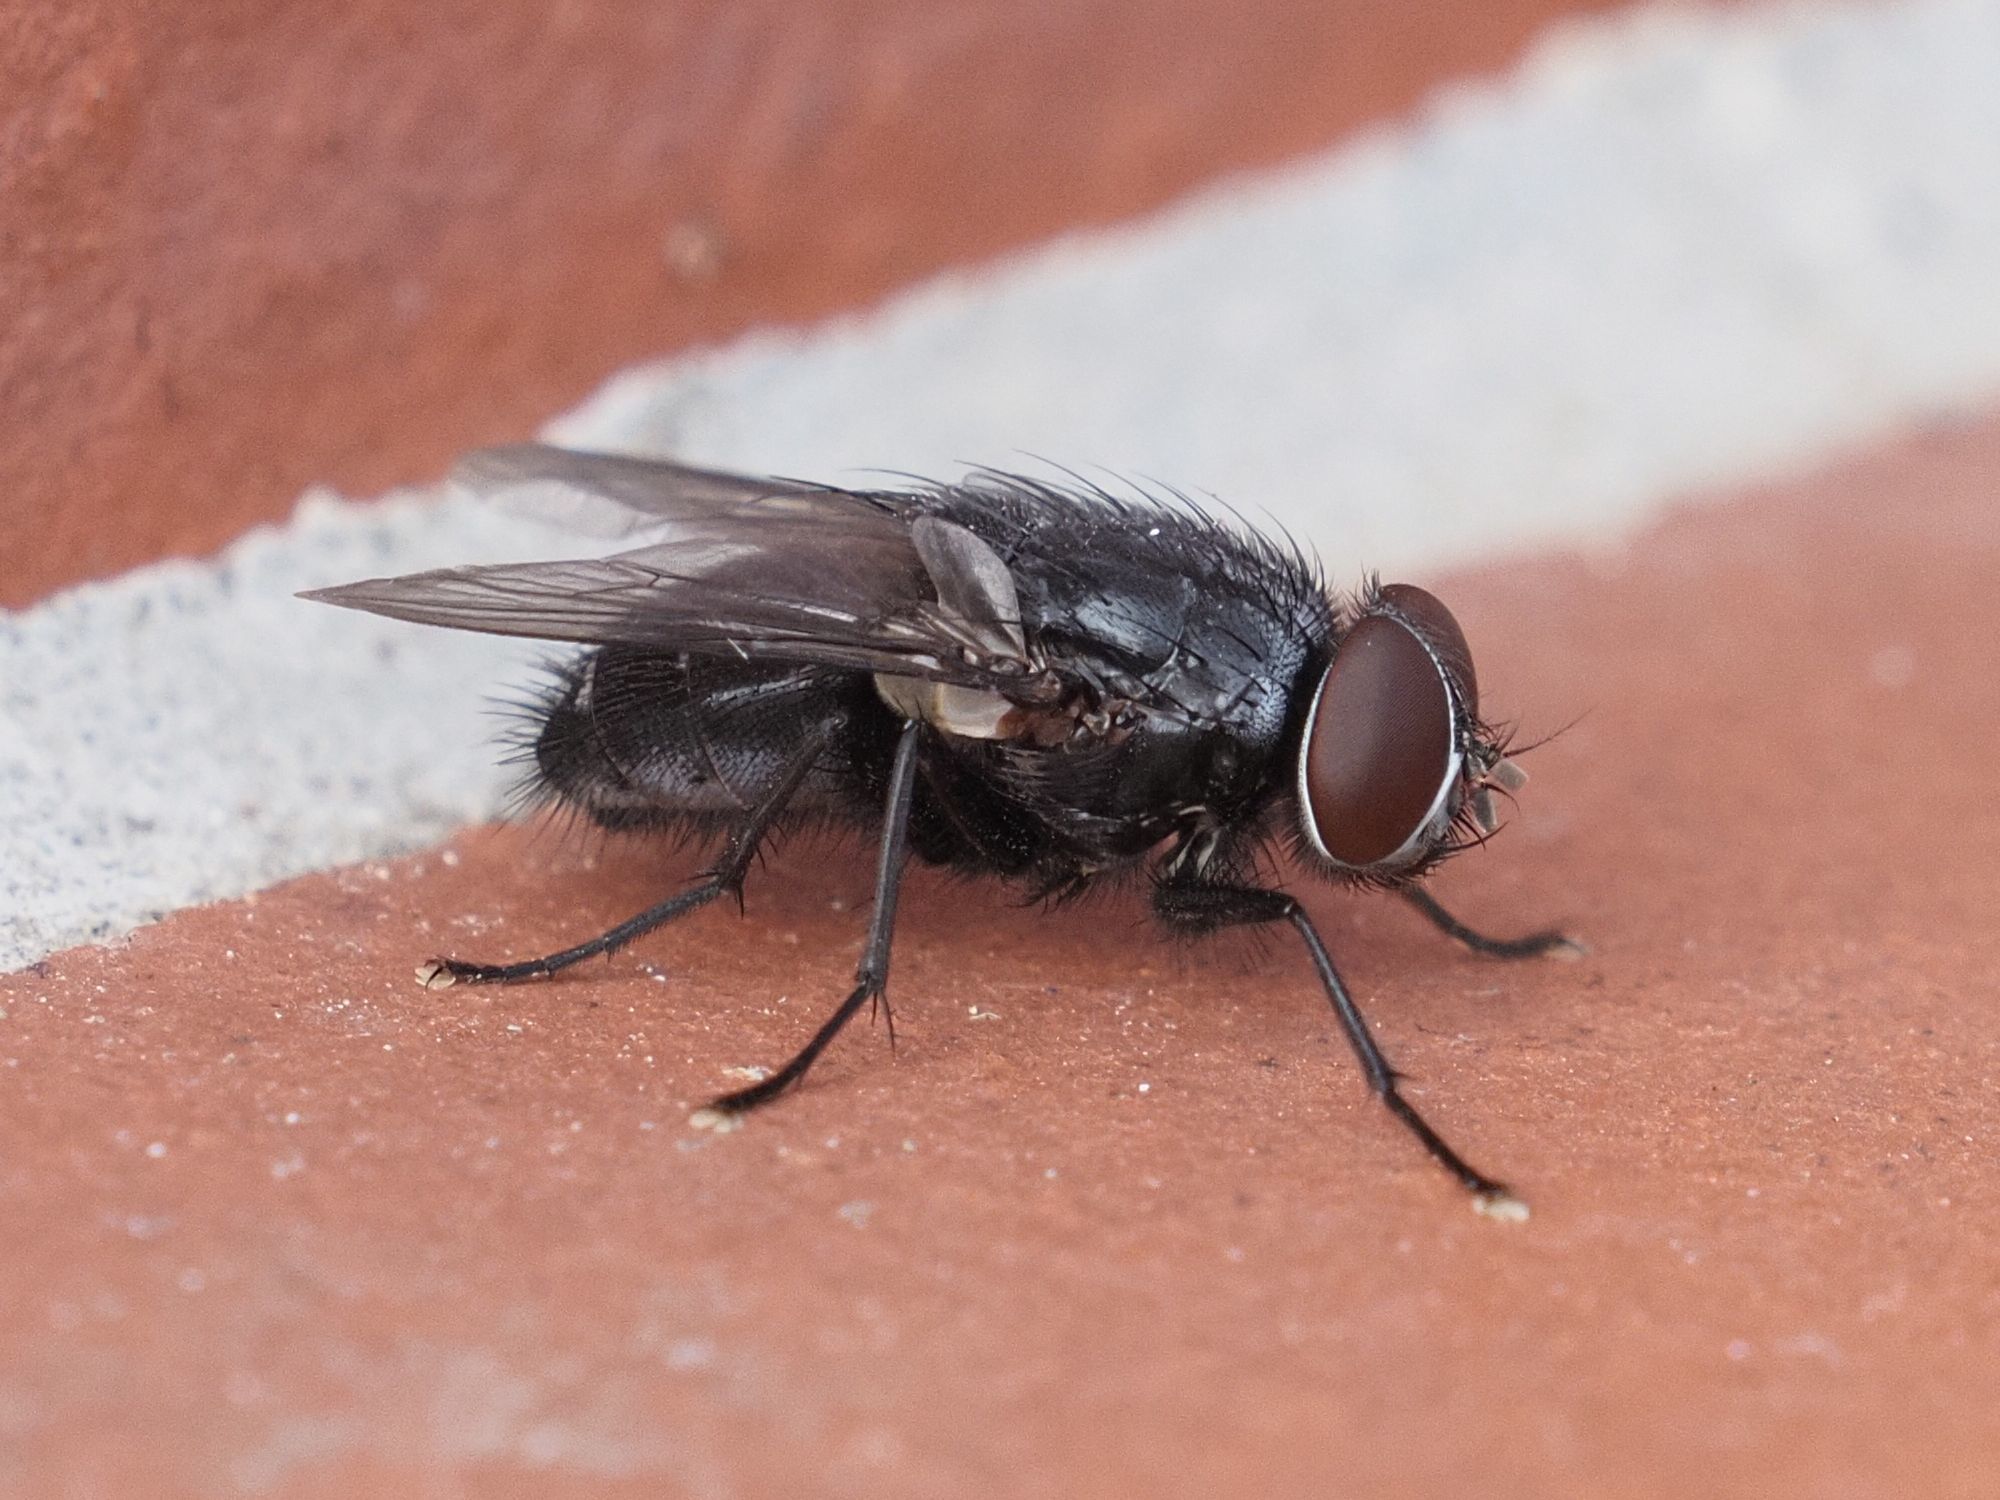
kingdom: Animalia
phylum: Arthropoda
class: Insecta
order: Diptera
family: Muscidae
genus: Muscina
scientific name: Muscina pascuorum
